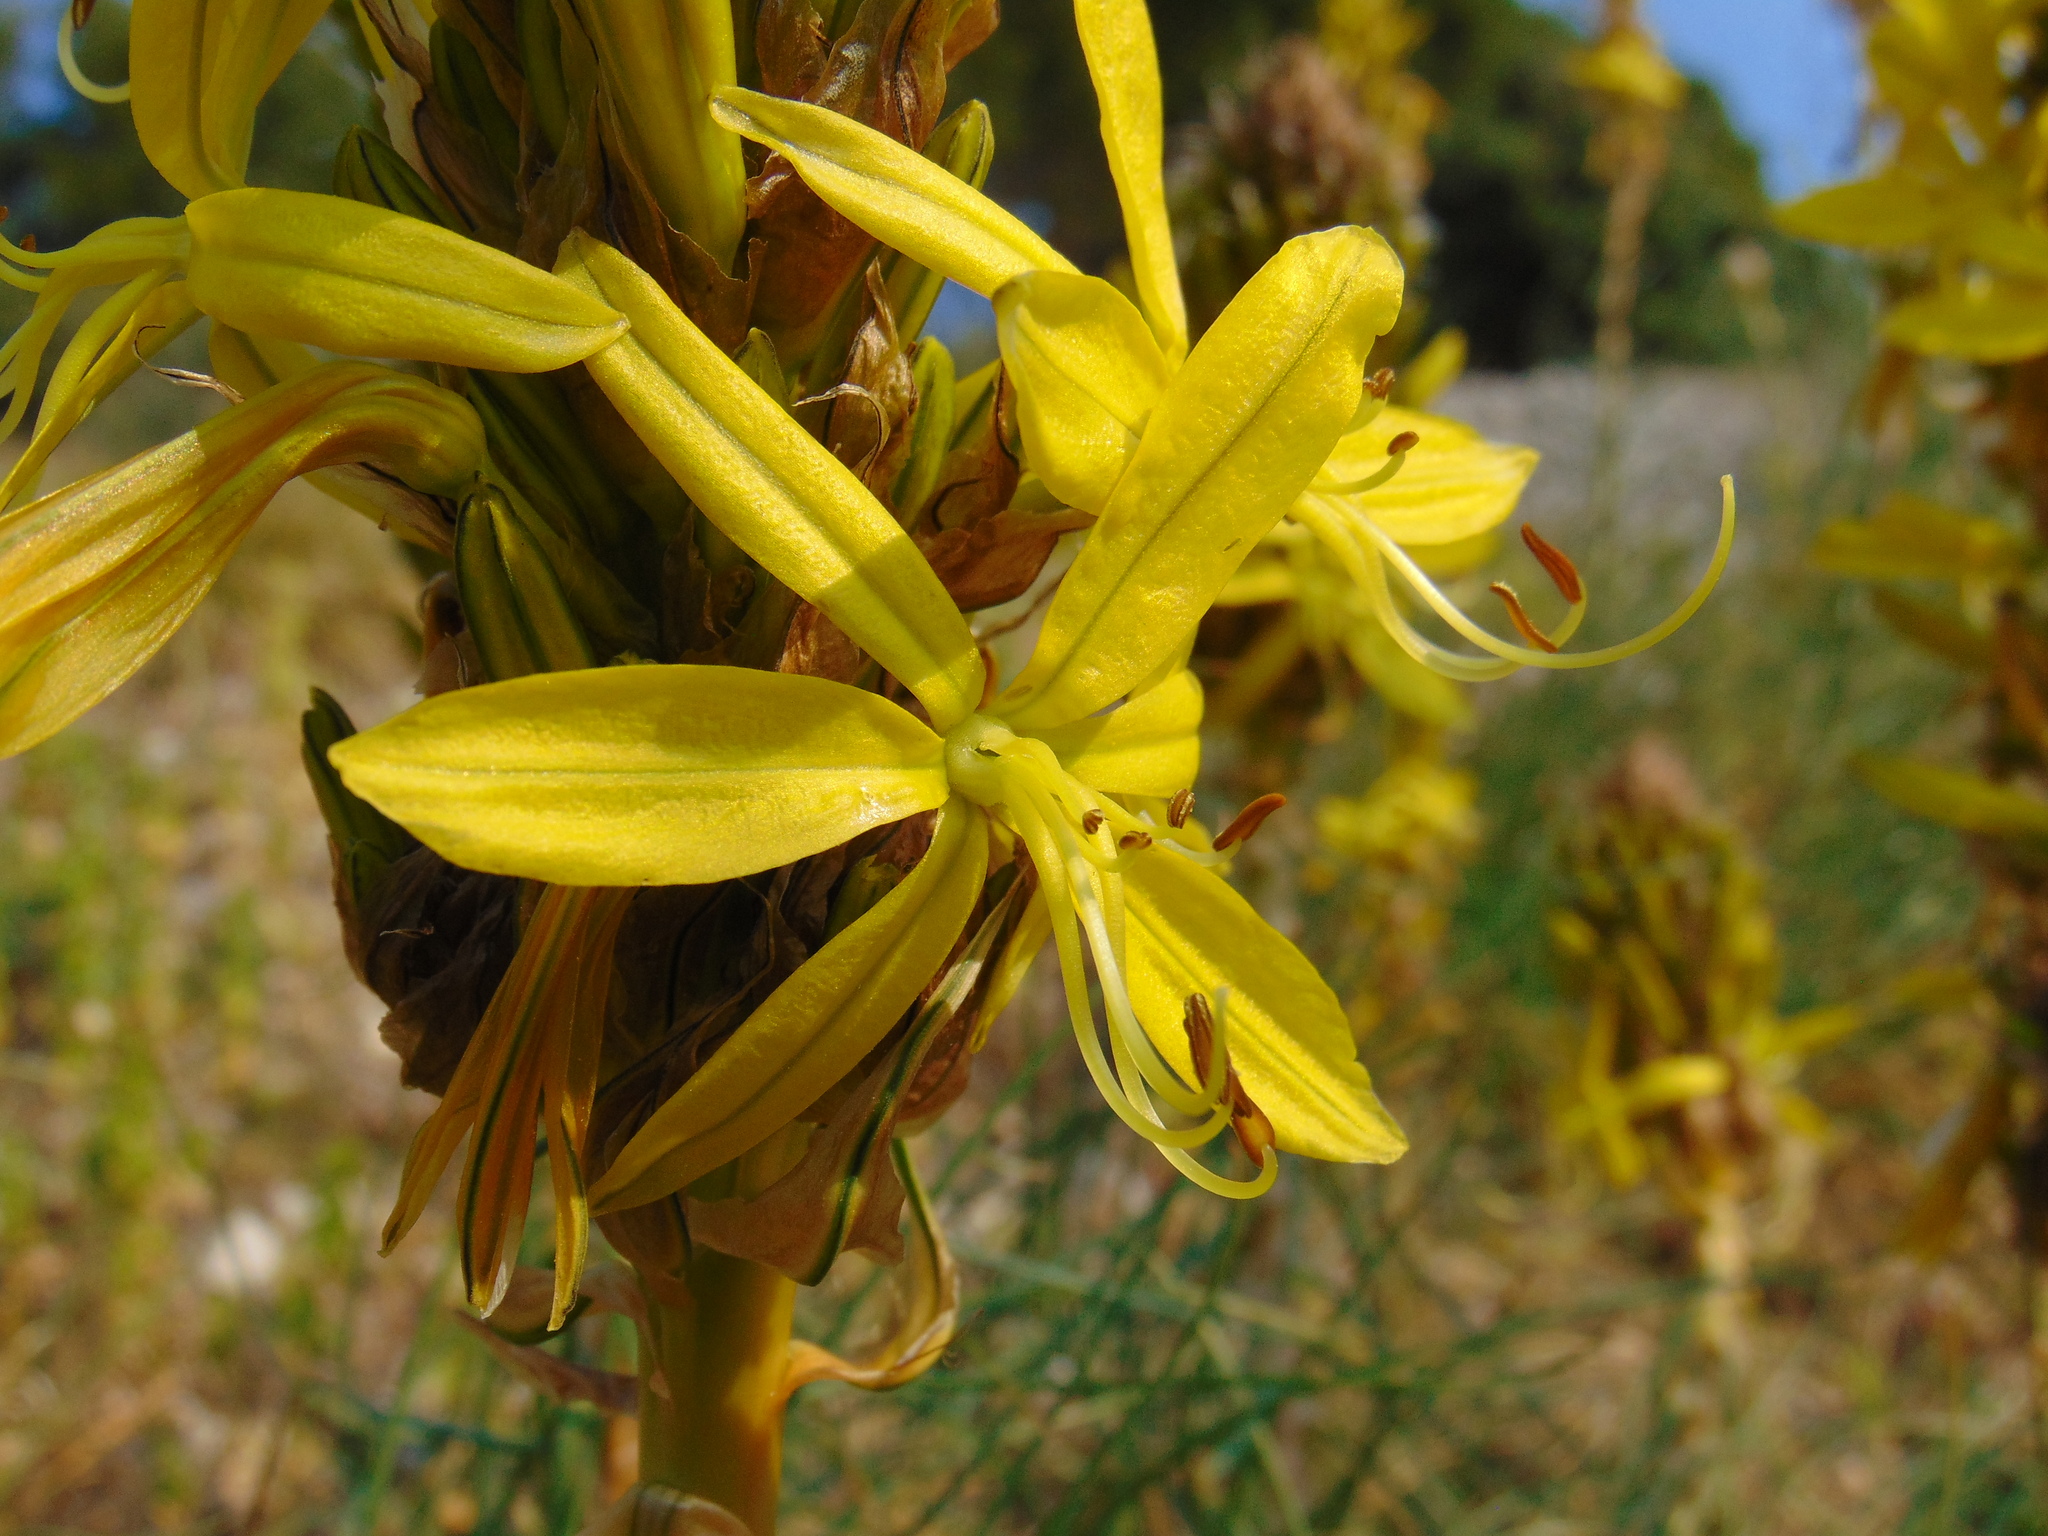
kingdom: Plantae
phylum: Tracheophyta
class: Liliopsida
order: Asparagales
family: Asphodelaceae
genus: Asphodeline
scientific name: Asphodeline lutea
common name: Yellow asphodel
